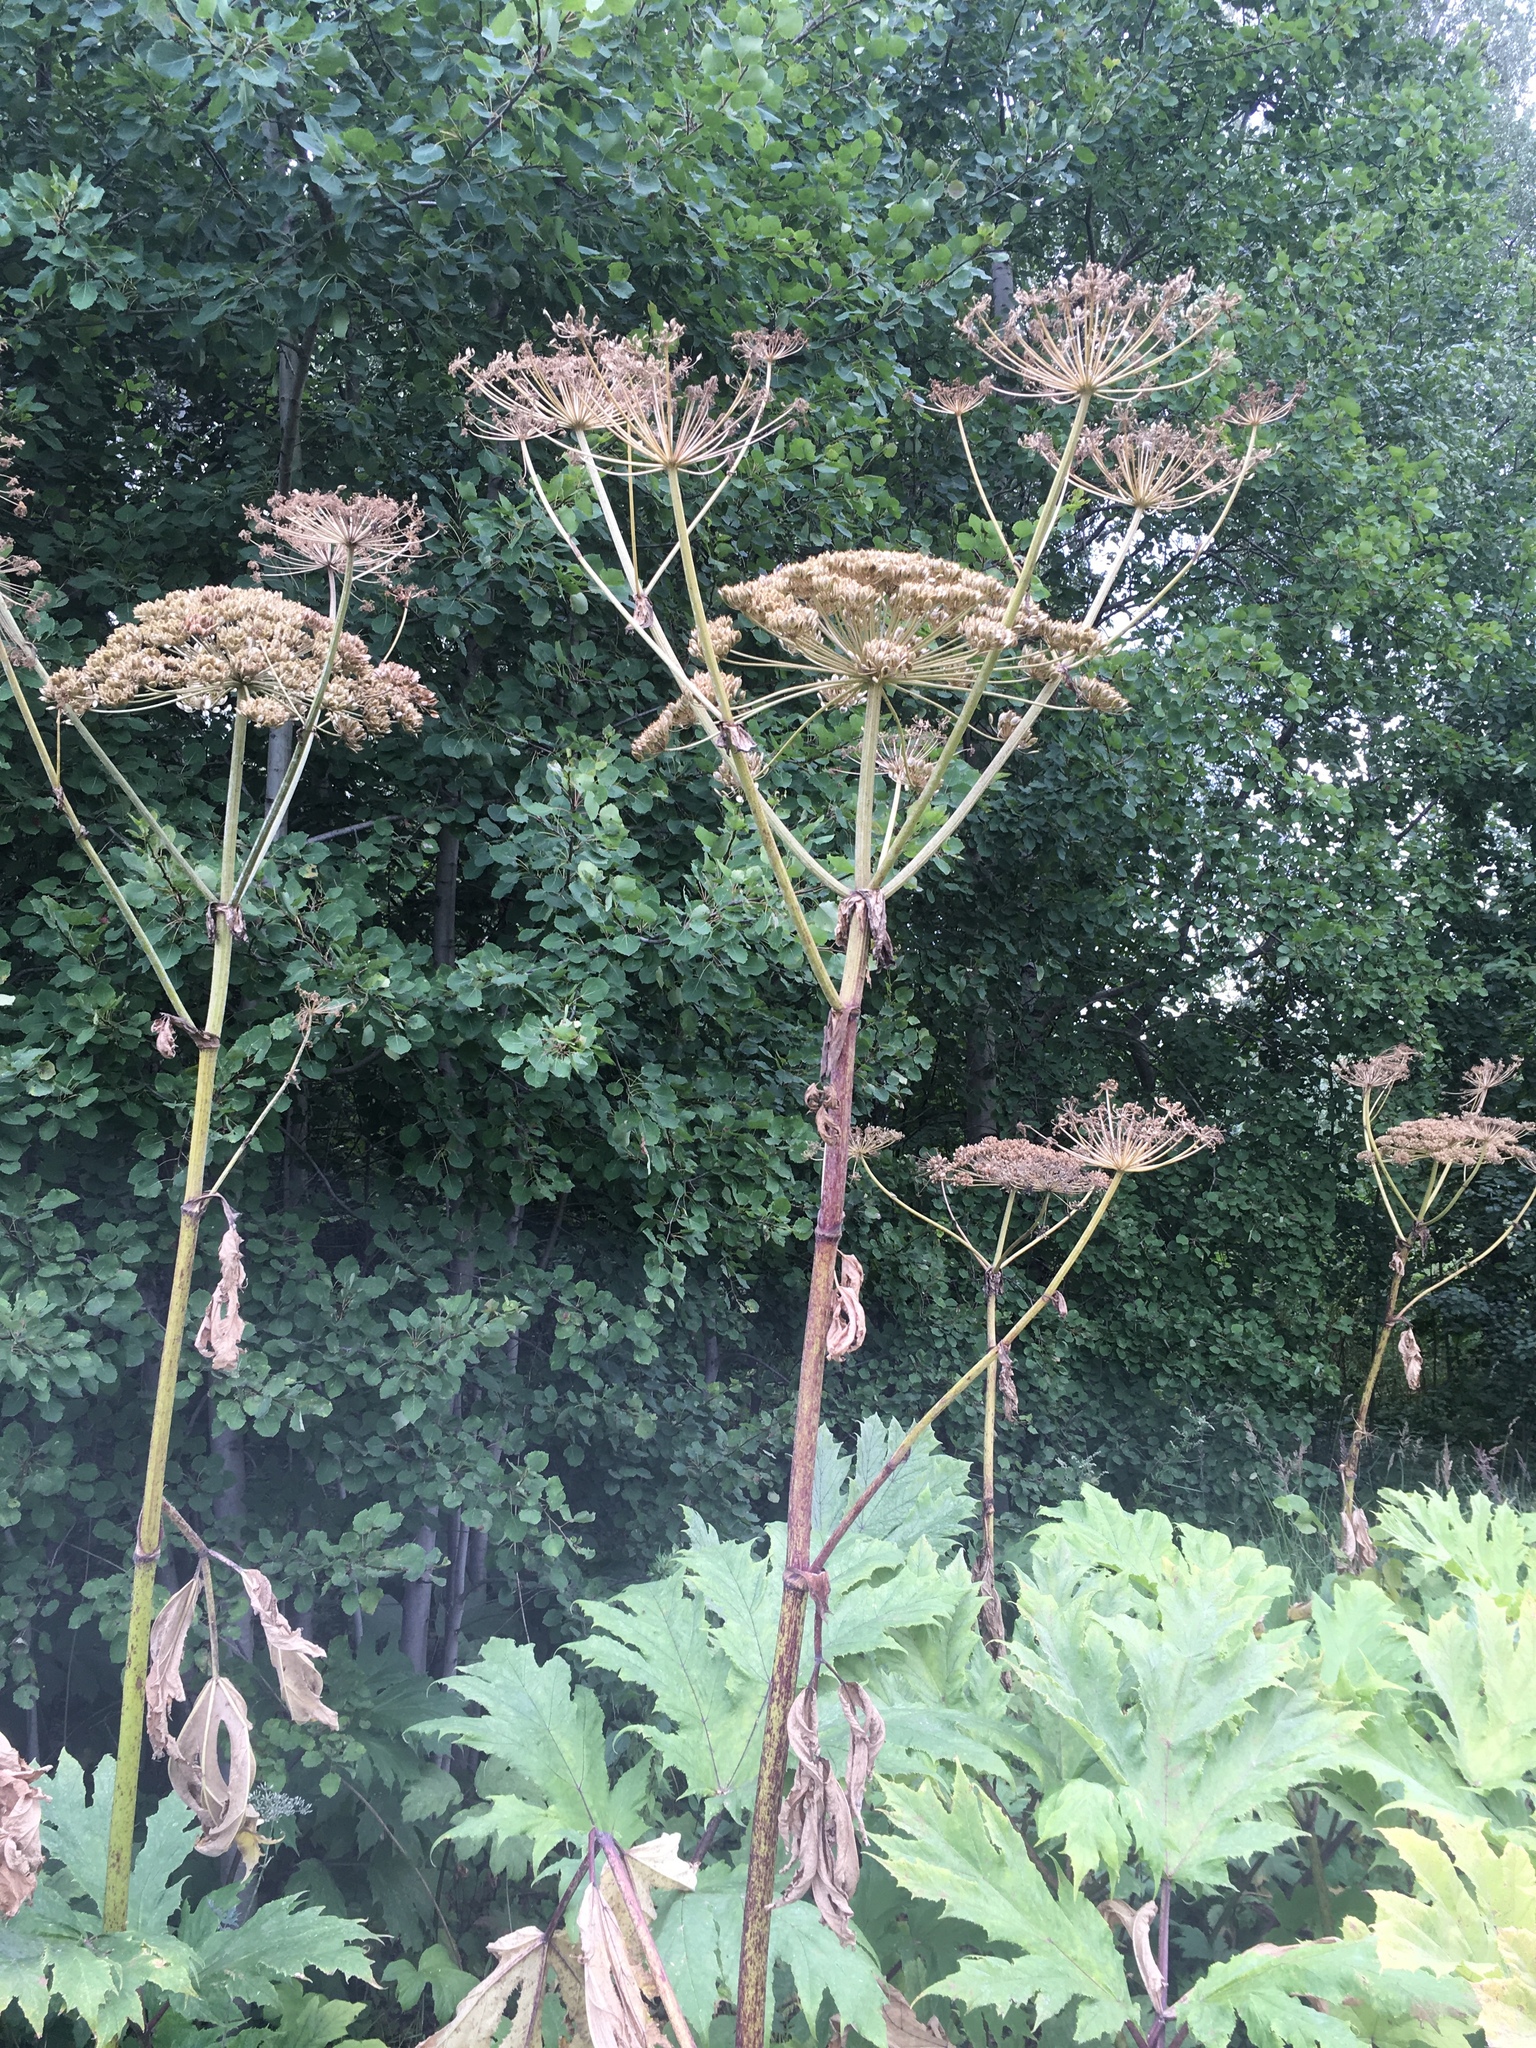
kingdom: Plantae
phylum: Tracheophyta
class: Magnoliopsida
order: Apiales
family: Apiaceae
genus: Heracleum
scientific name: Heracleum sosnowskyi
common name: Sosnowsky's hogweed
